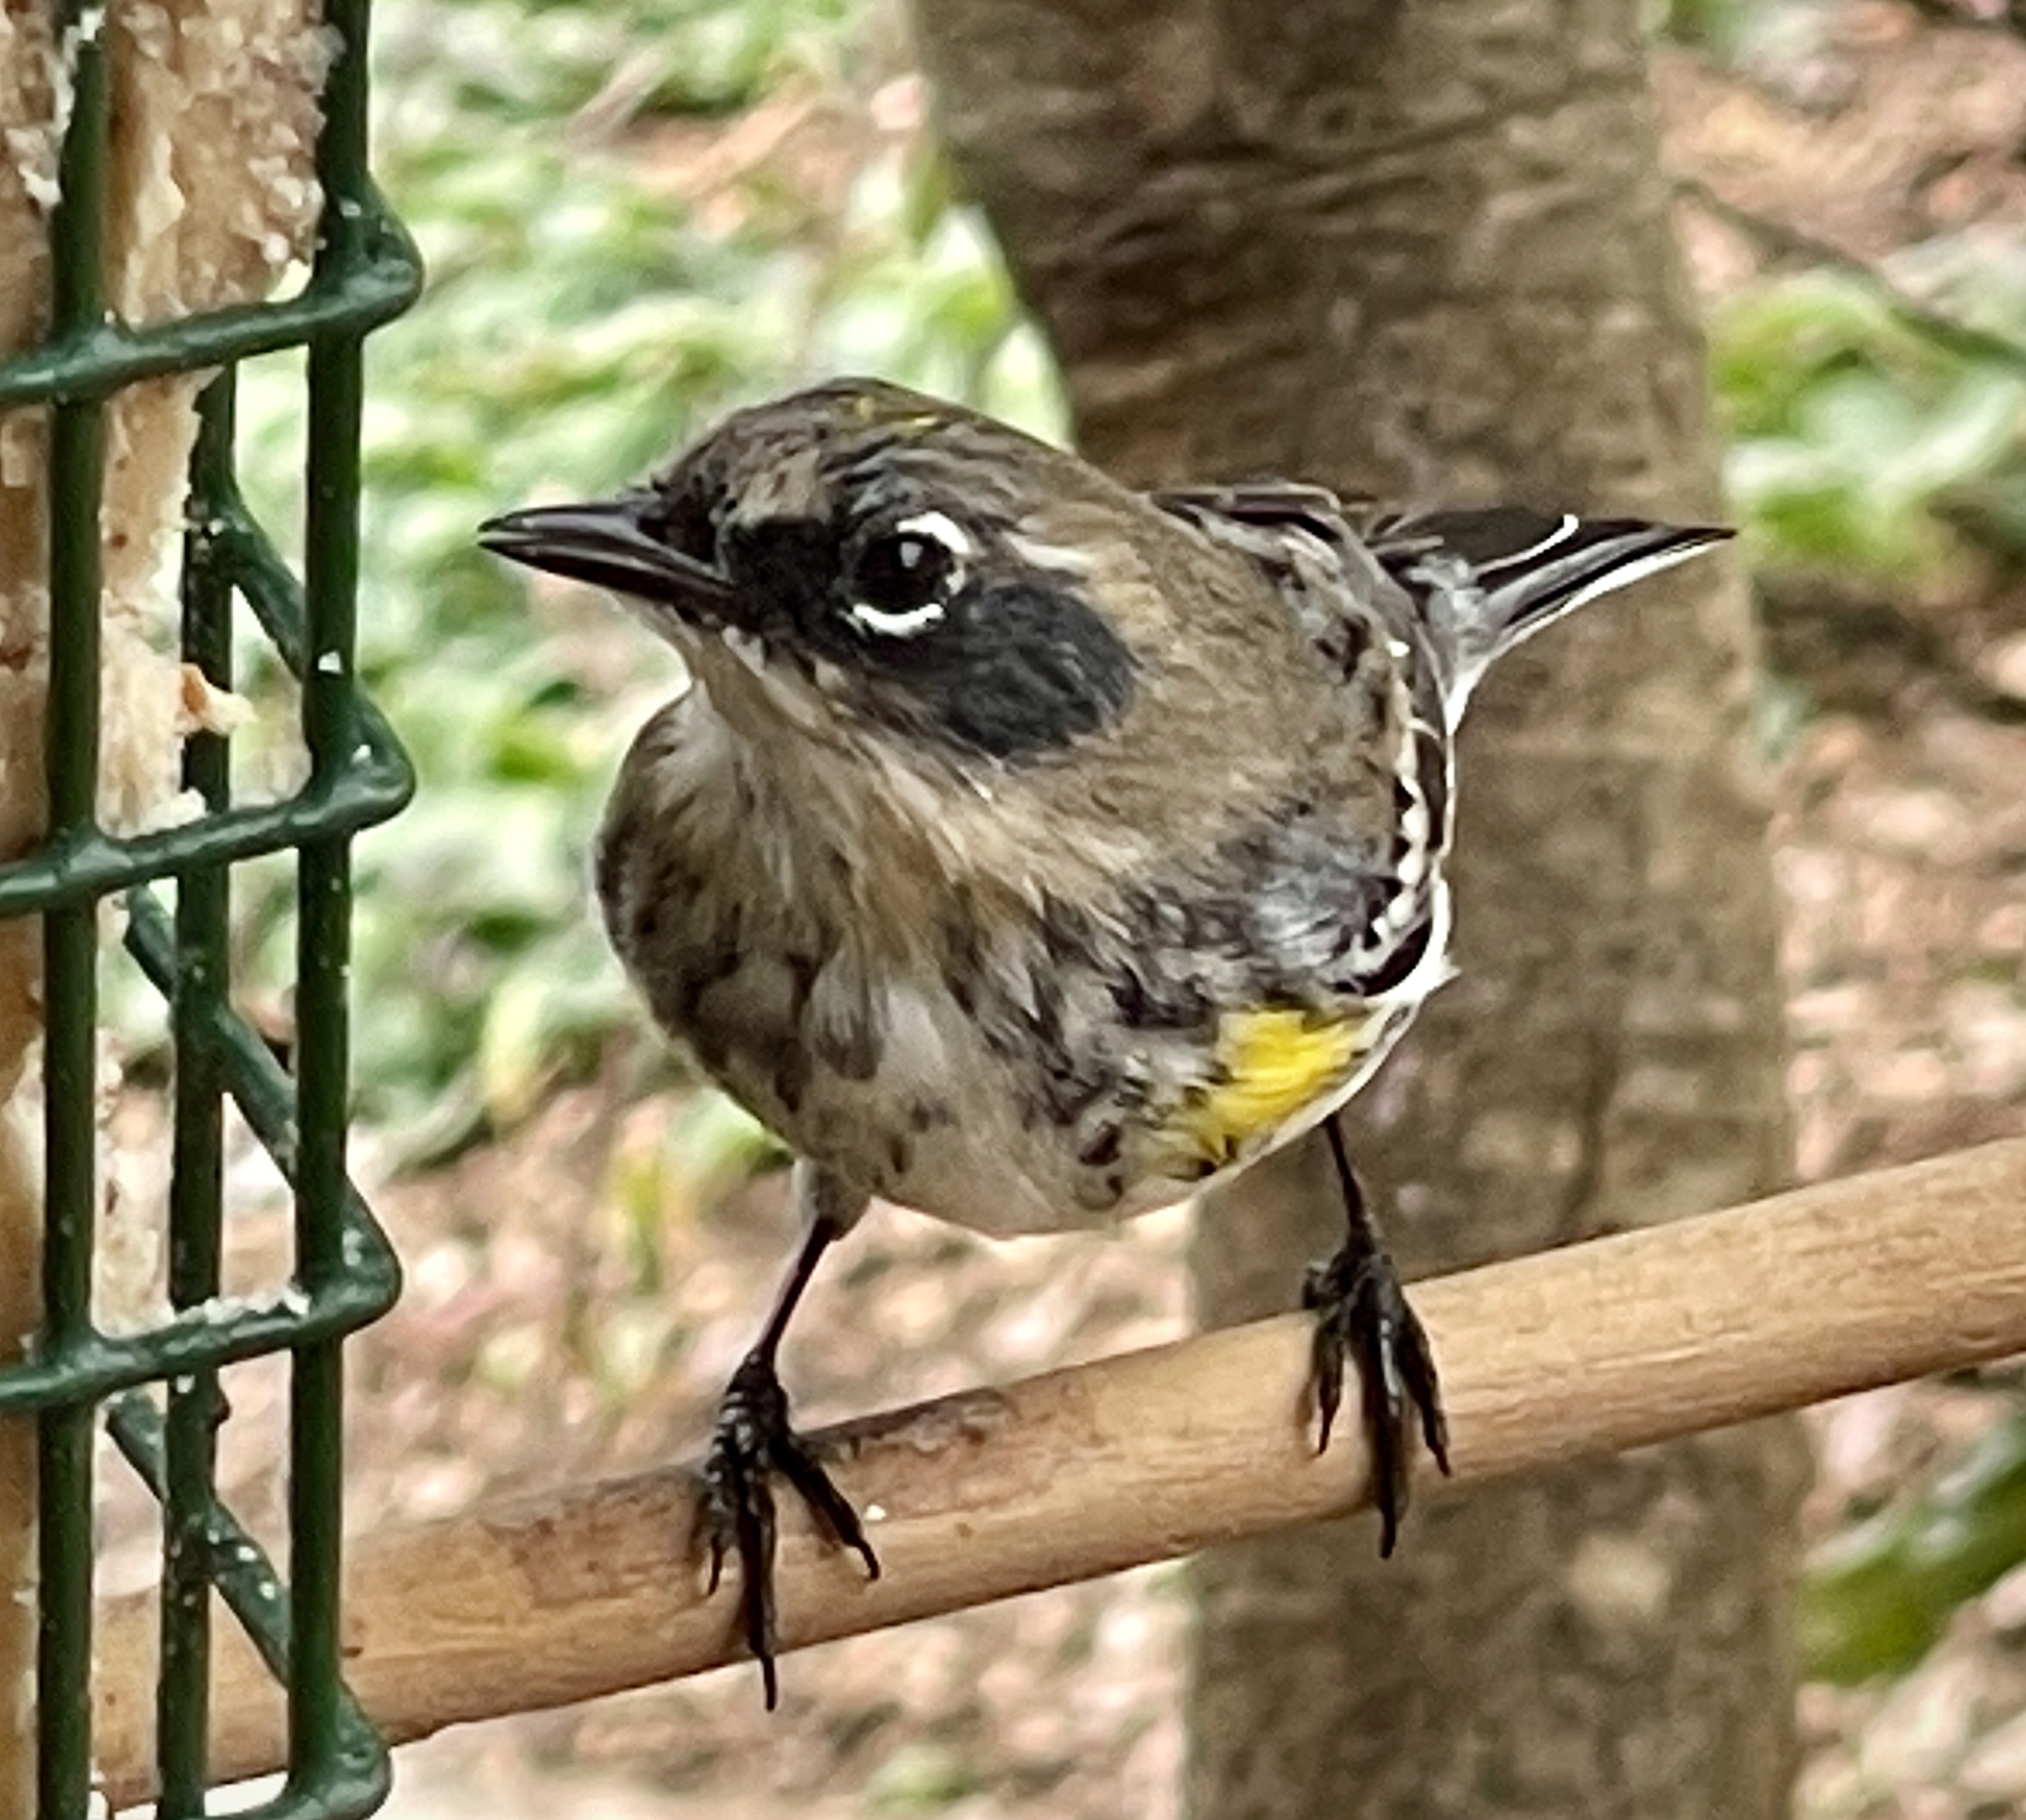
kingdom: Animalia
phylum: Chordata
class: Aves
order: Passeriformes
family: Parulidae
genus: Setophaga
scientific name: Setophaga coronata
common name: Myrtle warbler
